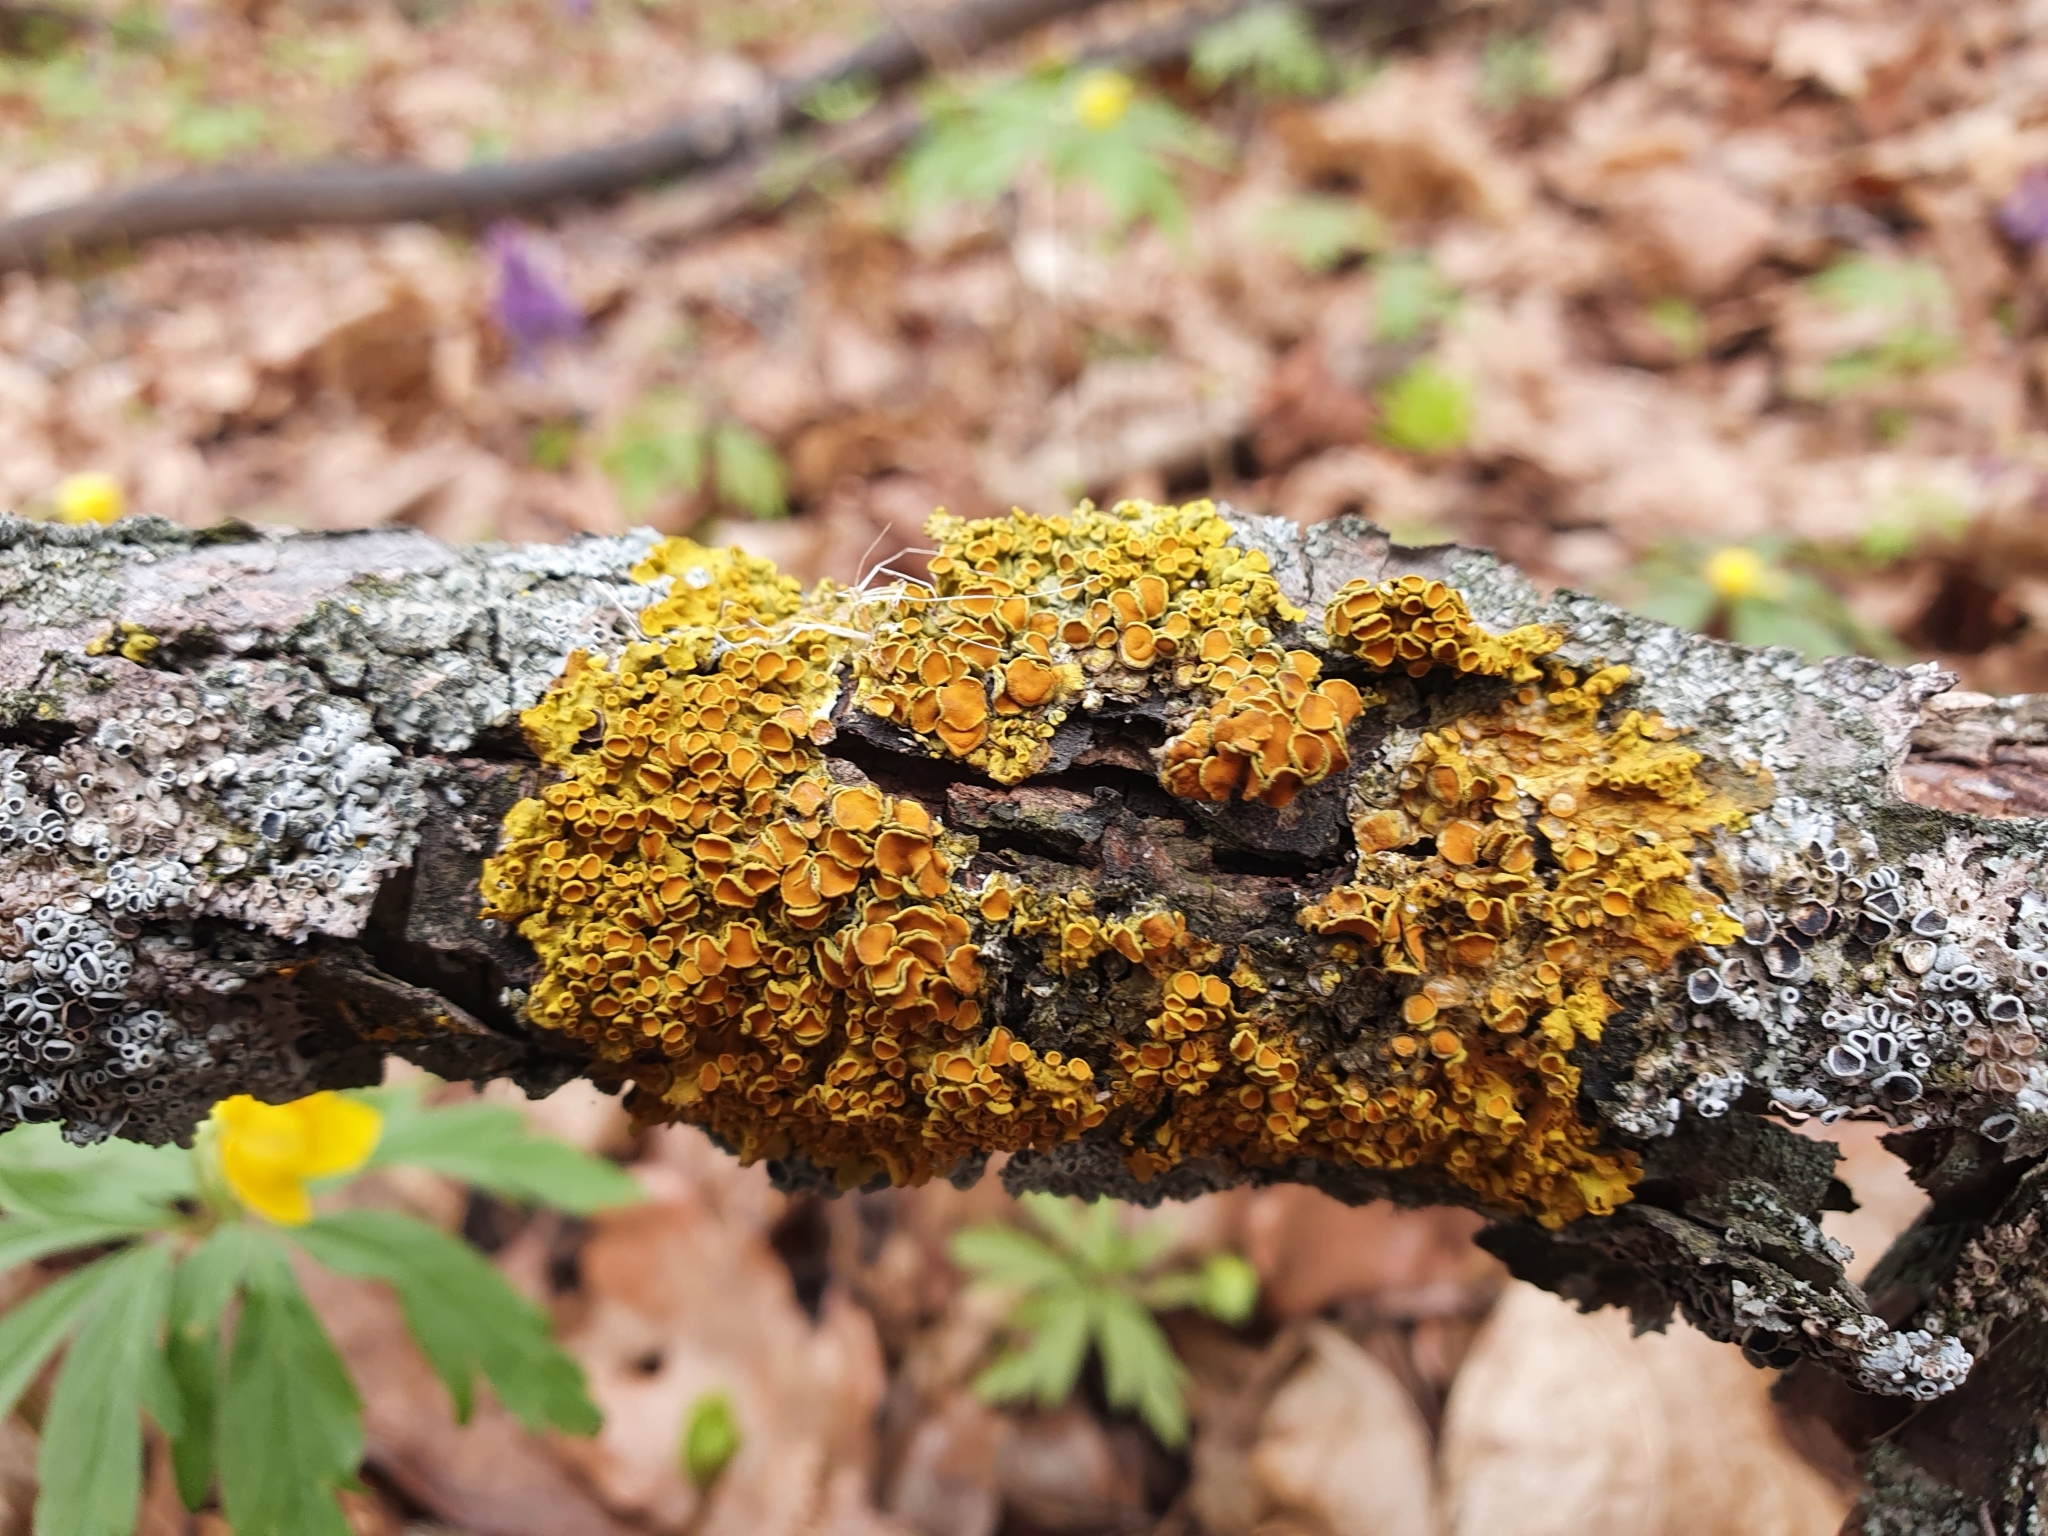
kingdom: Fungi
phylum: Ascomycota
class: Lecanoromycetes
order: Teloschistales
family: Teloschistaceae
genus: Xanthoria
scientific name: Xanthoria parietina
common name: Common orange lichen
